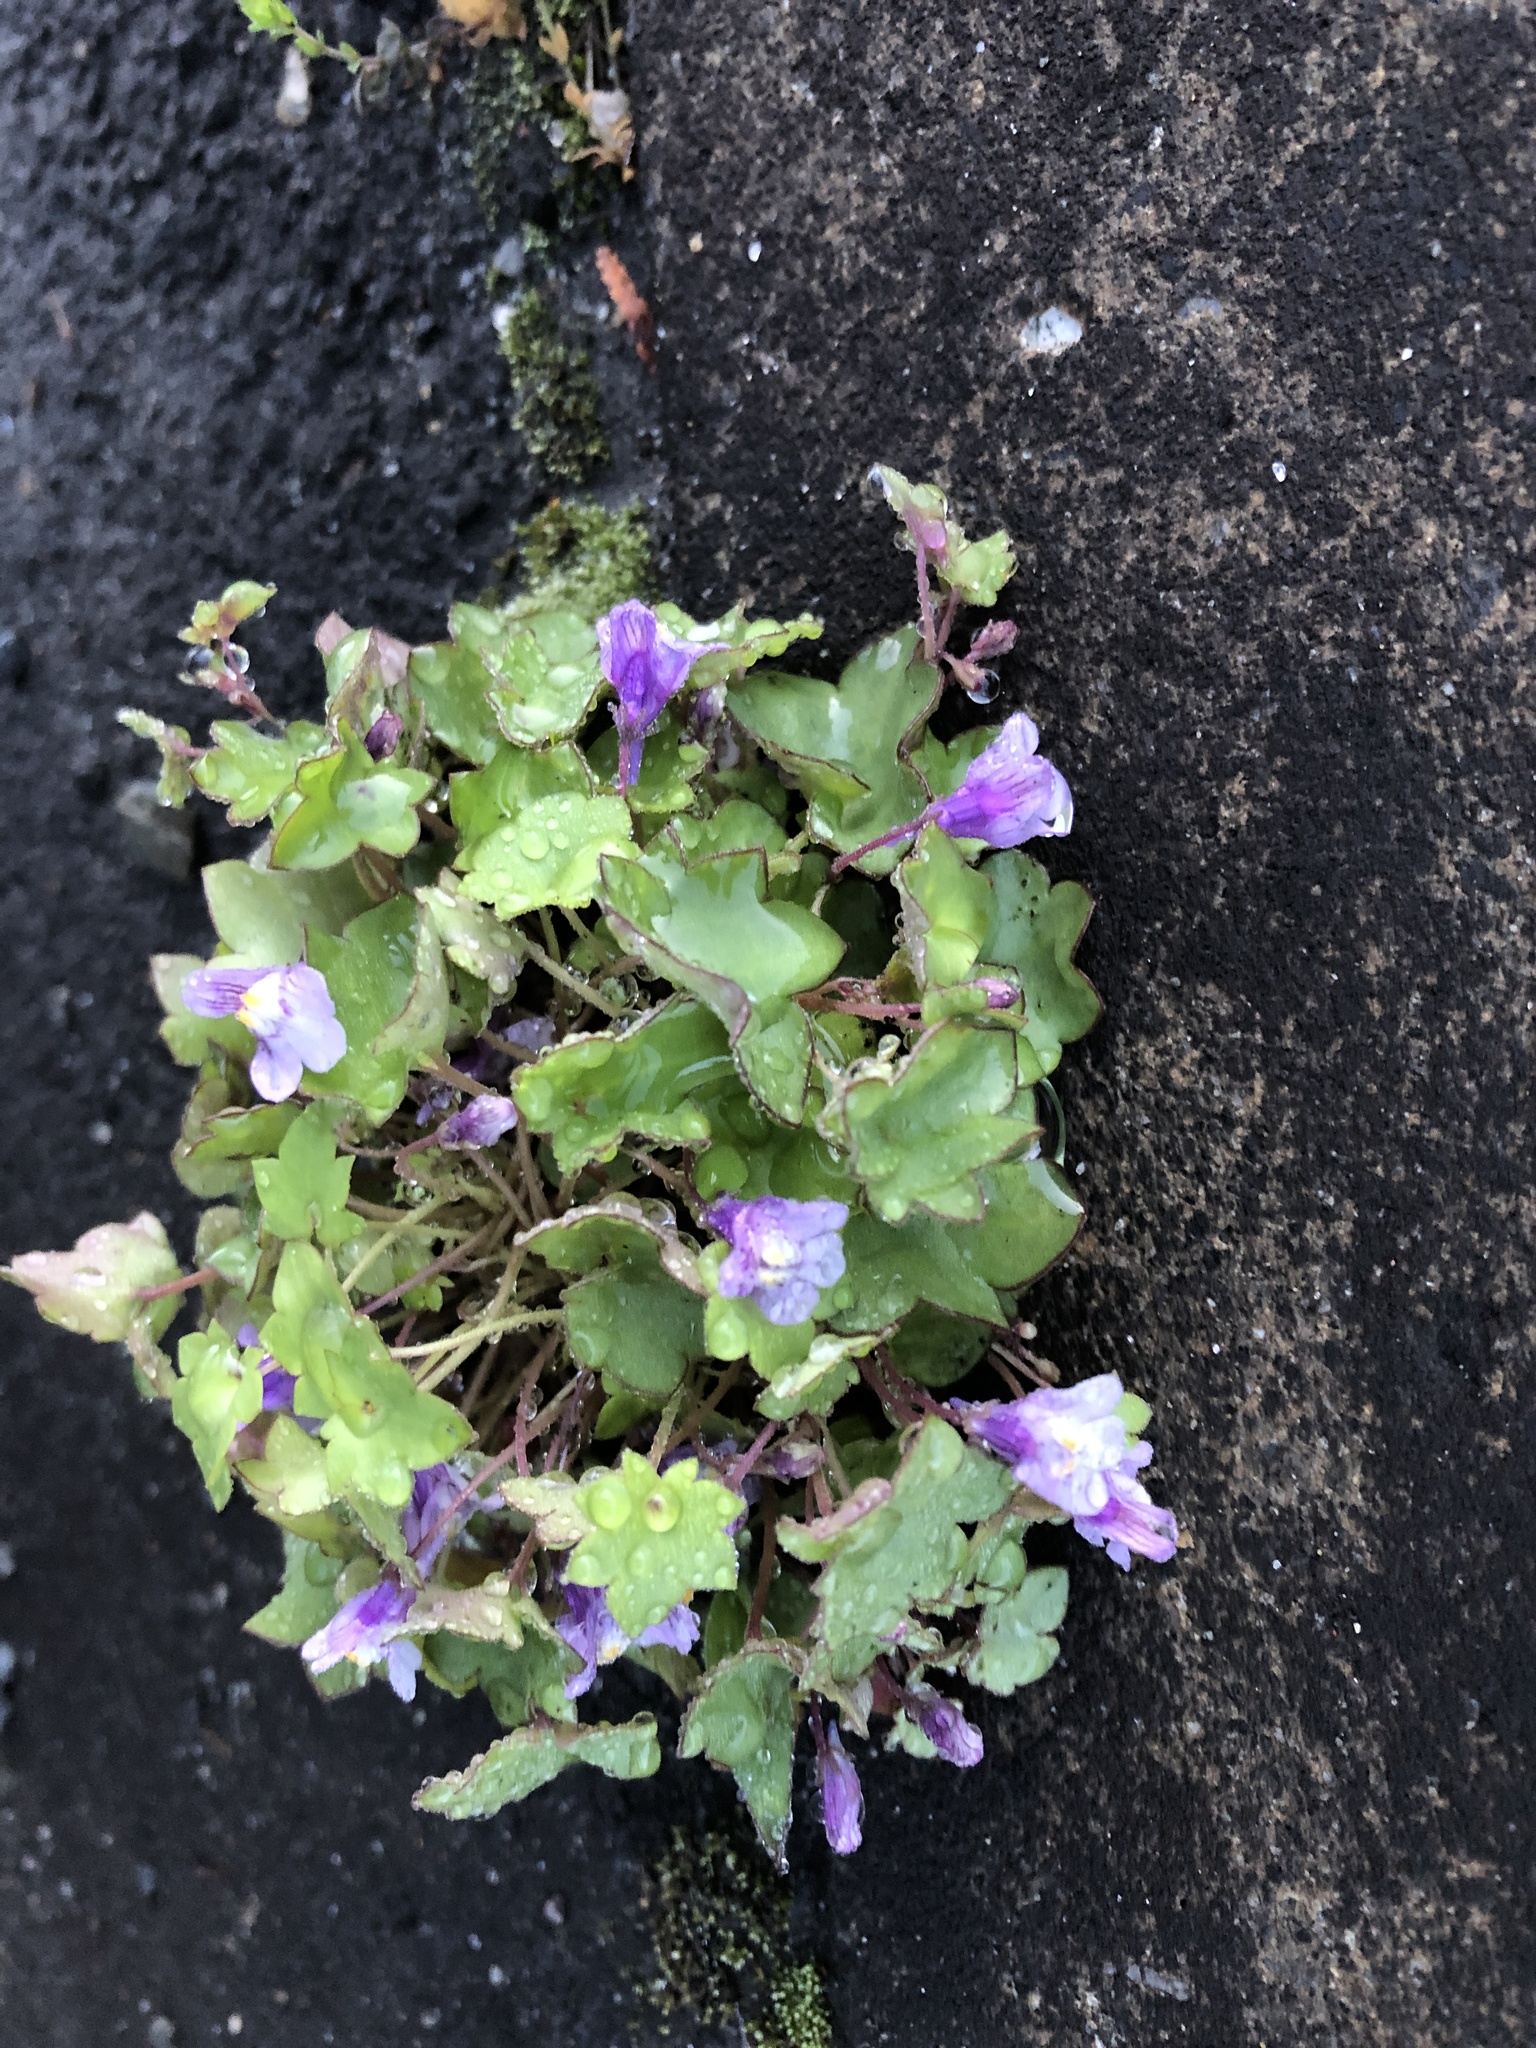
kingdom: Plantae
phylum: Tracheophyta
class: Magnoliopsida
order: Lamiales
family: Plantaginaceae
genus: Cymbalaria
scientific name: Cymbalaria muralis
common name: Ivy-leaved toadflax
